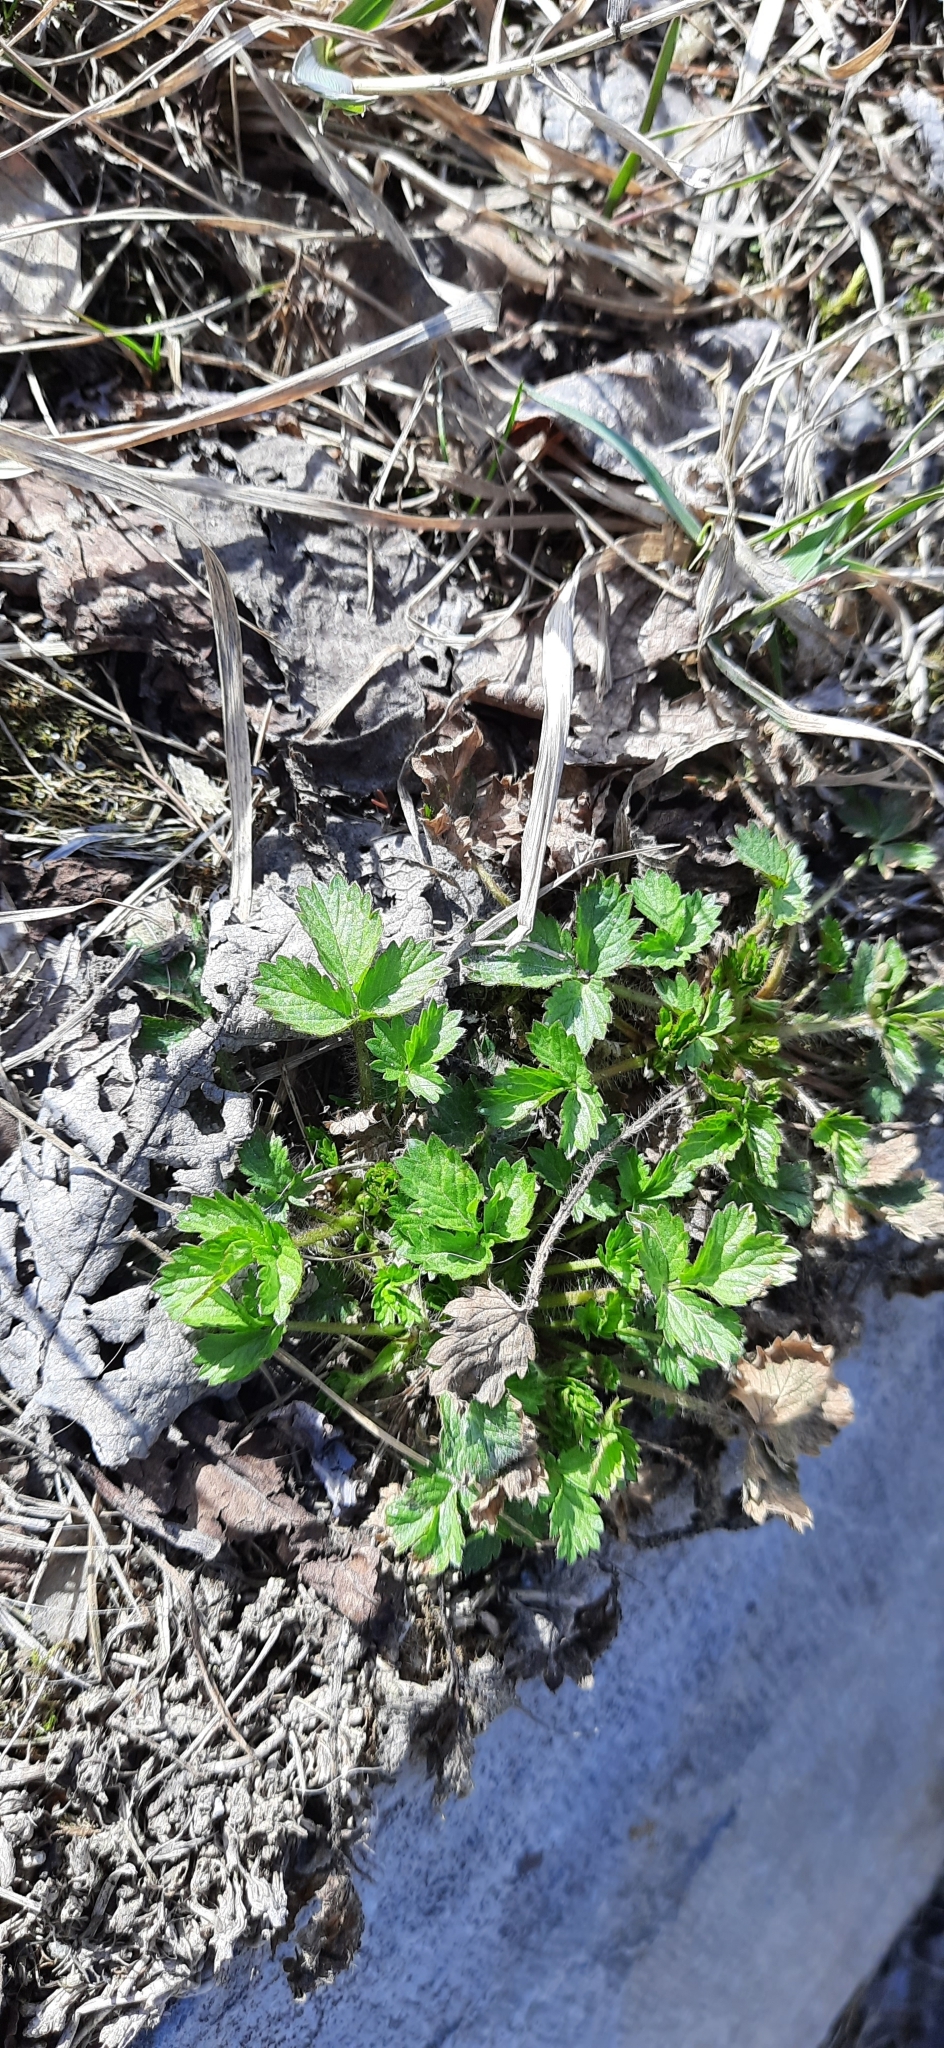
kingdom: Plantae
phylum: Tracheophyta
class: Magnoliopsida
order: Rosales
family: Rosaceae
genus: Potentilla
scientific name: Potentilla norvegica
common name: Ternate-leaved cinquefoil
